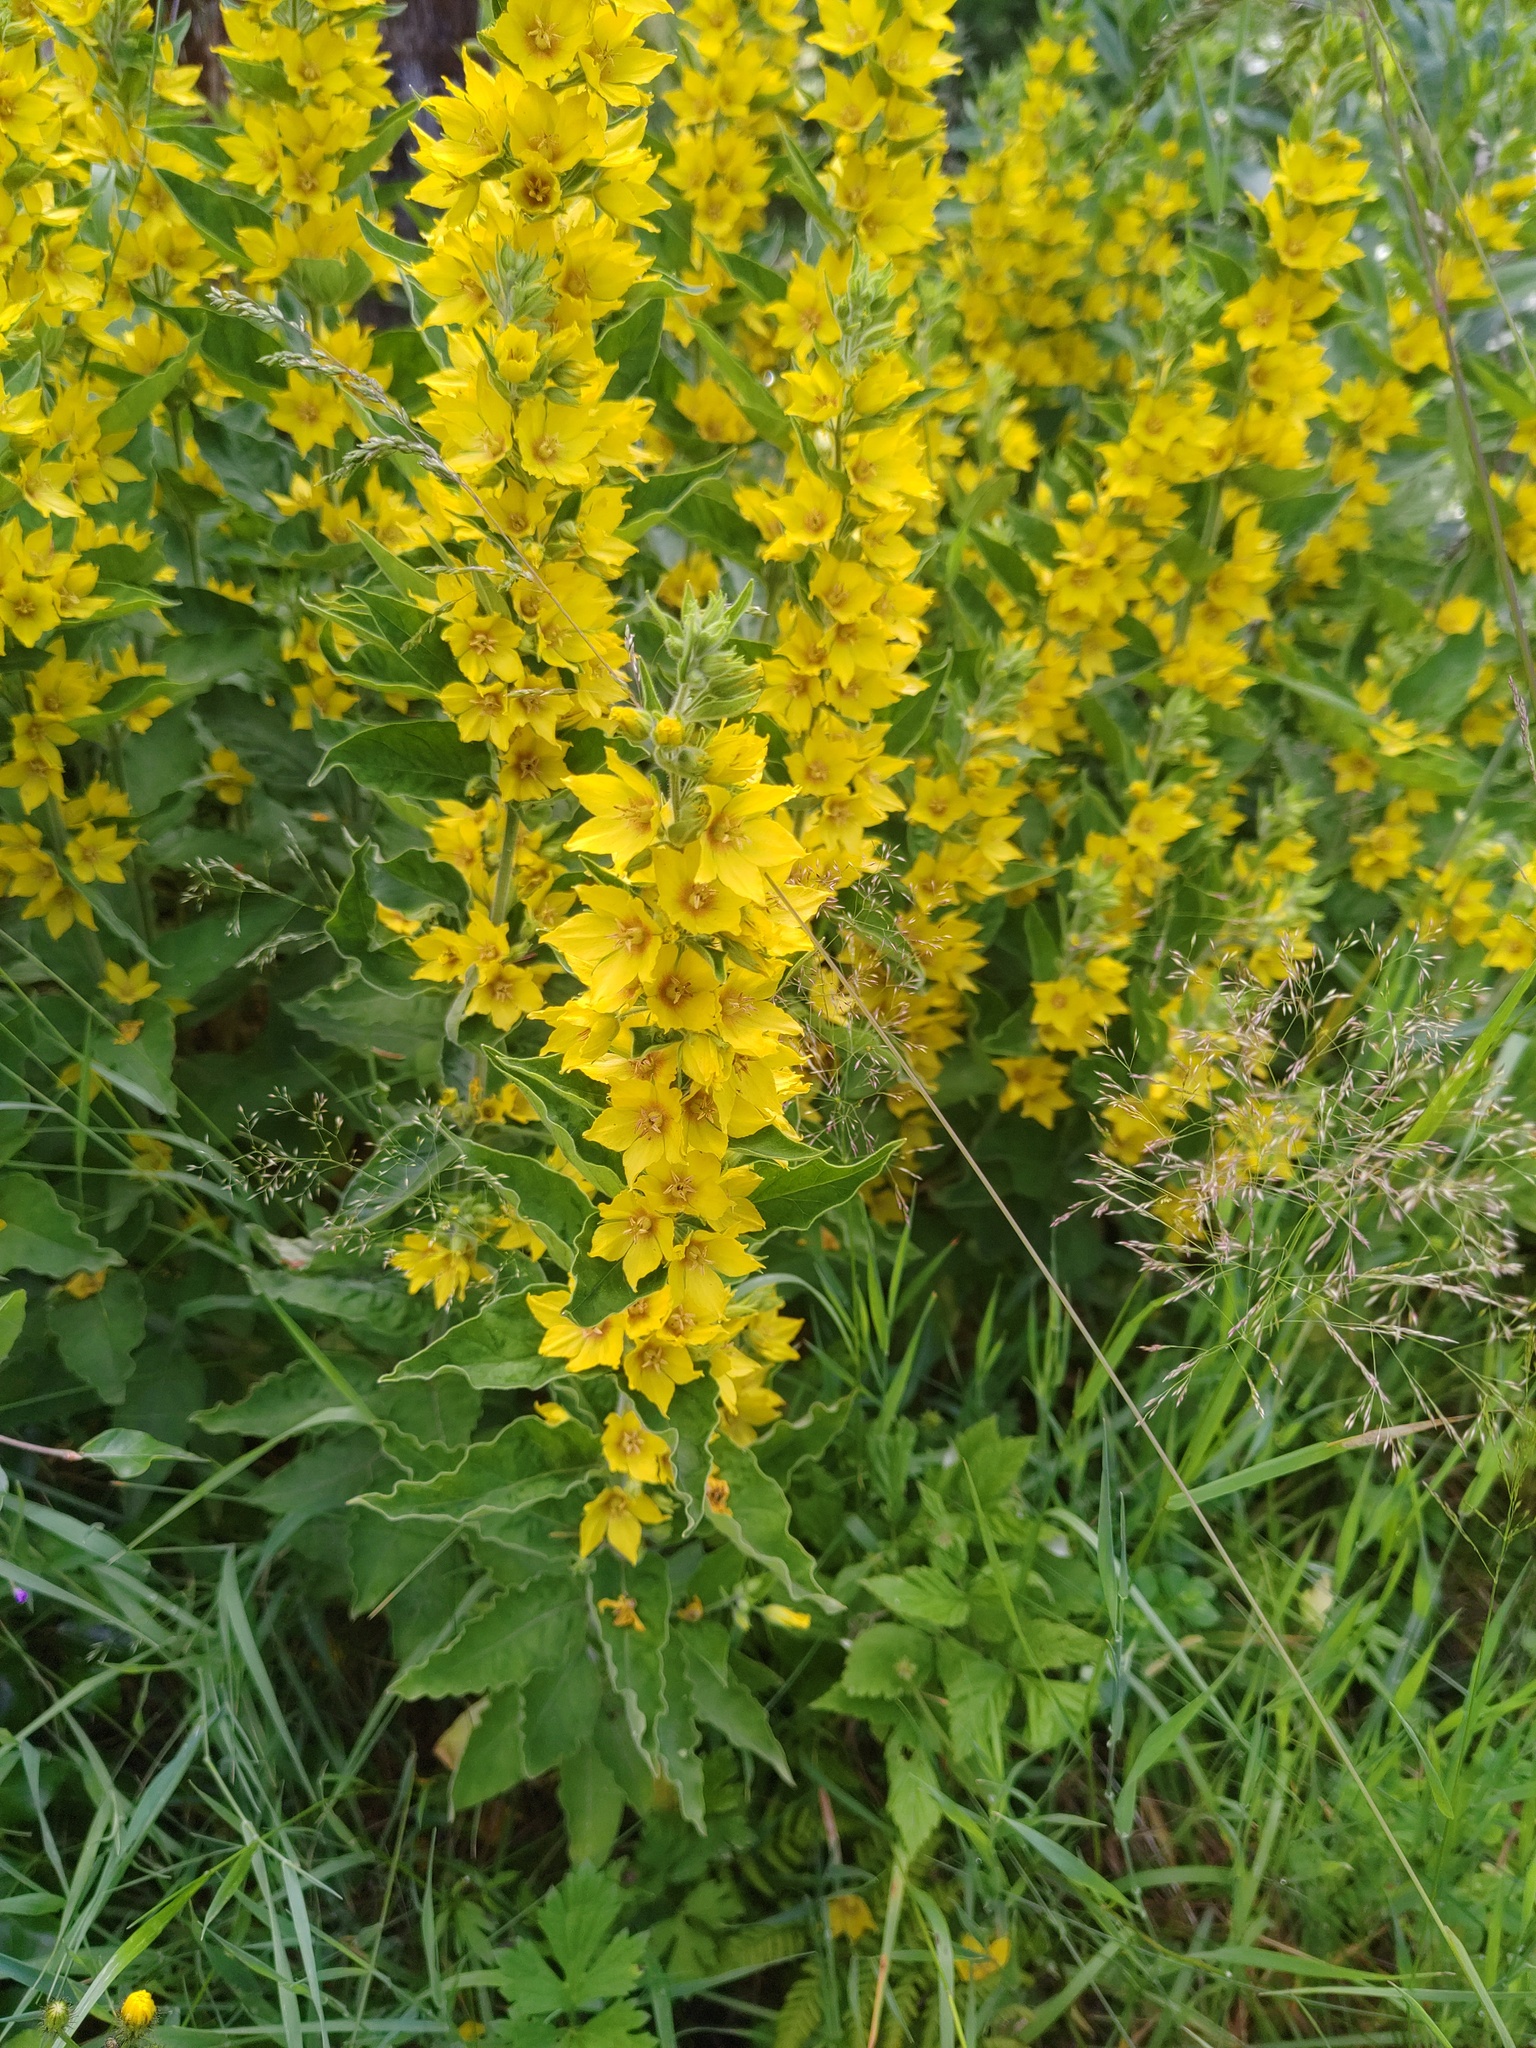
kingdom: Plantae
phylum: Tracheophyta
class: Magnoliopsida
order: Ericales
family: Primulaceae
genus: Lysimachia
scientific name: Lysimachia punctata
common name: Dotted loosestrife
